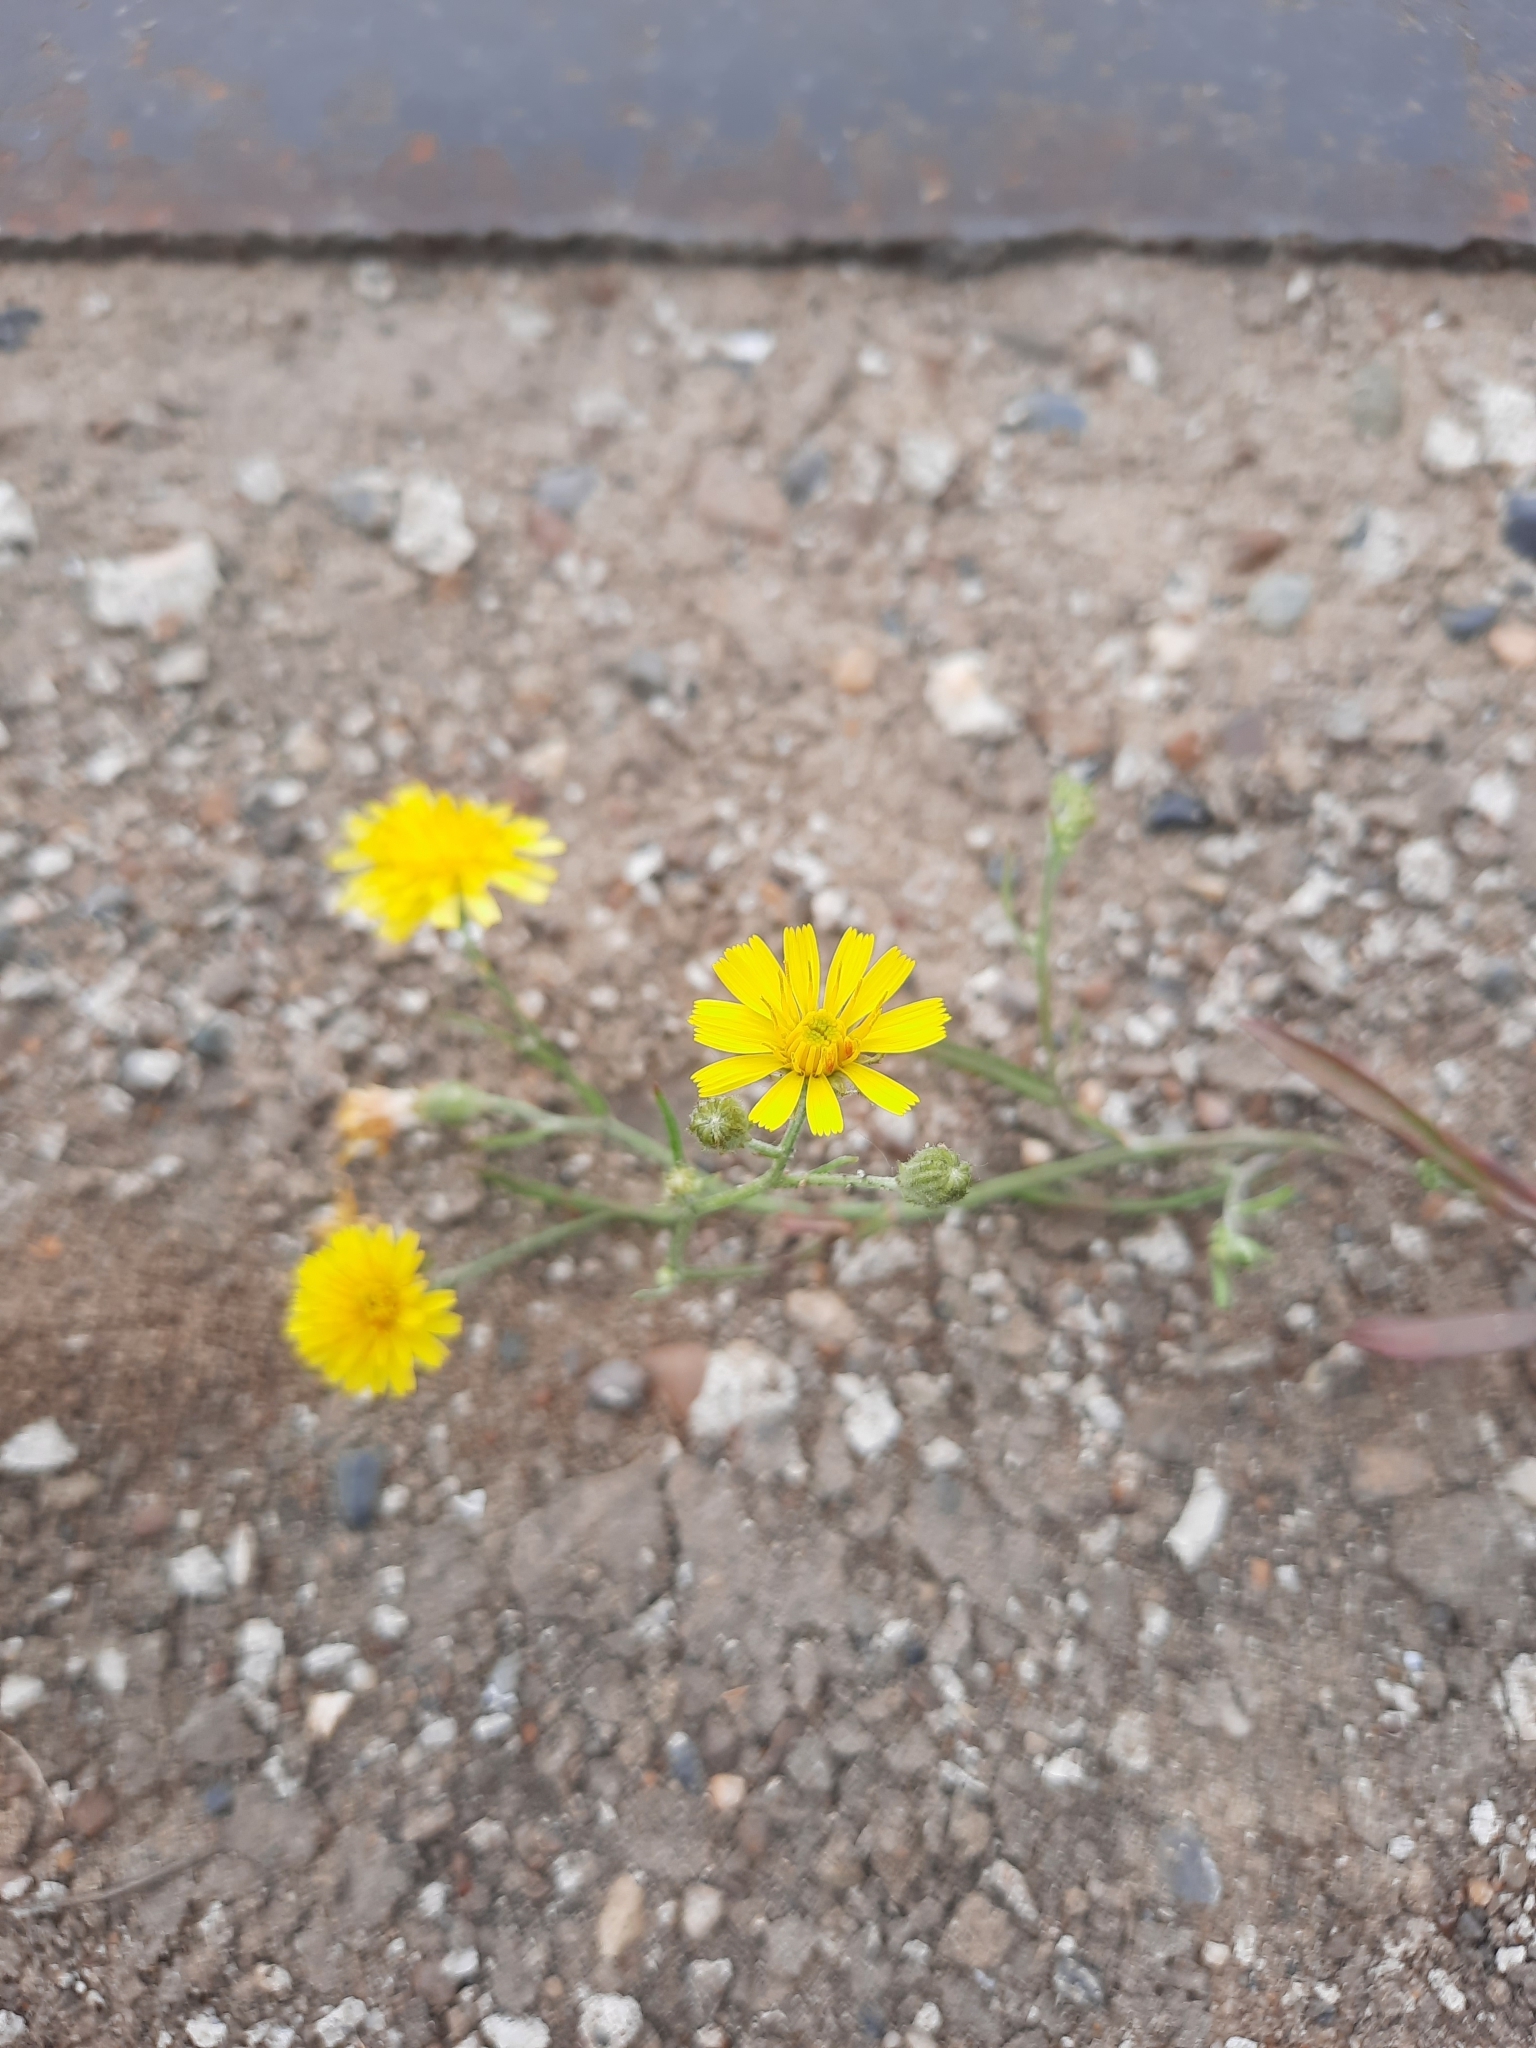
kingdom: Plantae
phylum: Tracheophyta
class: Magnoliopsida
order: Asterales
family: Asteraceae
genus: Crepis
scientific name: Crepis tectorum
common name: Narrow-leaved hawk's-beard
